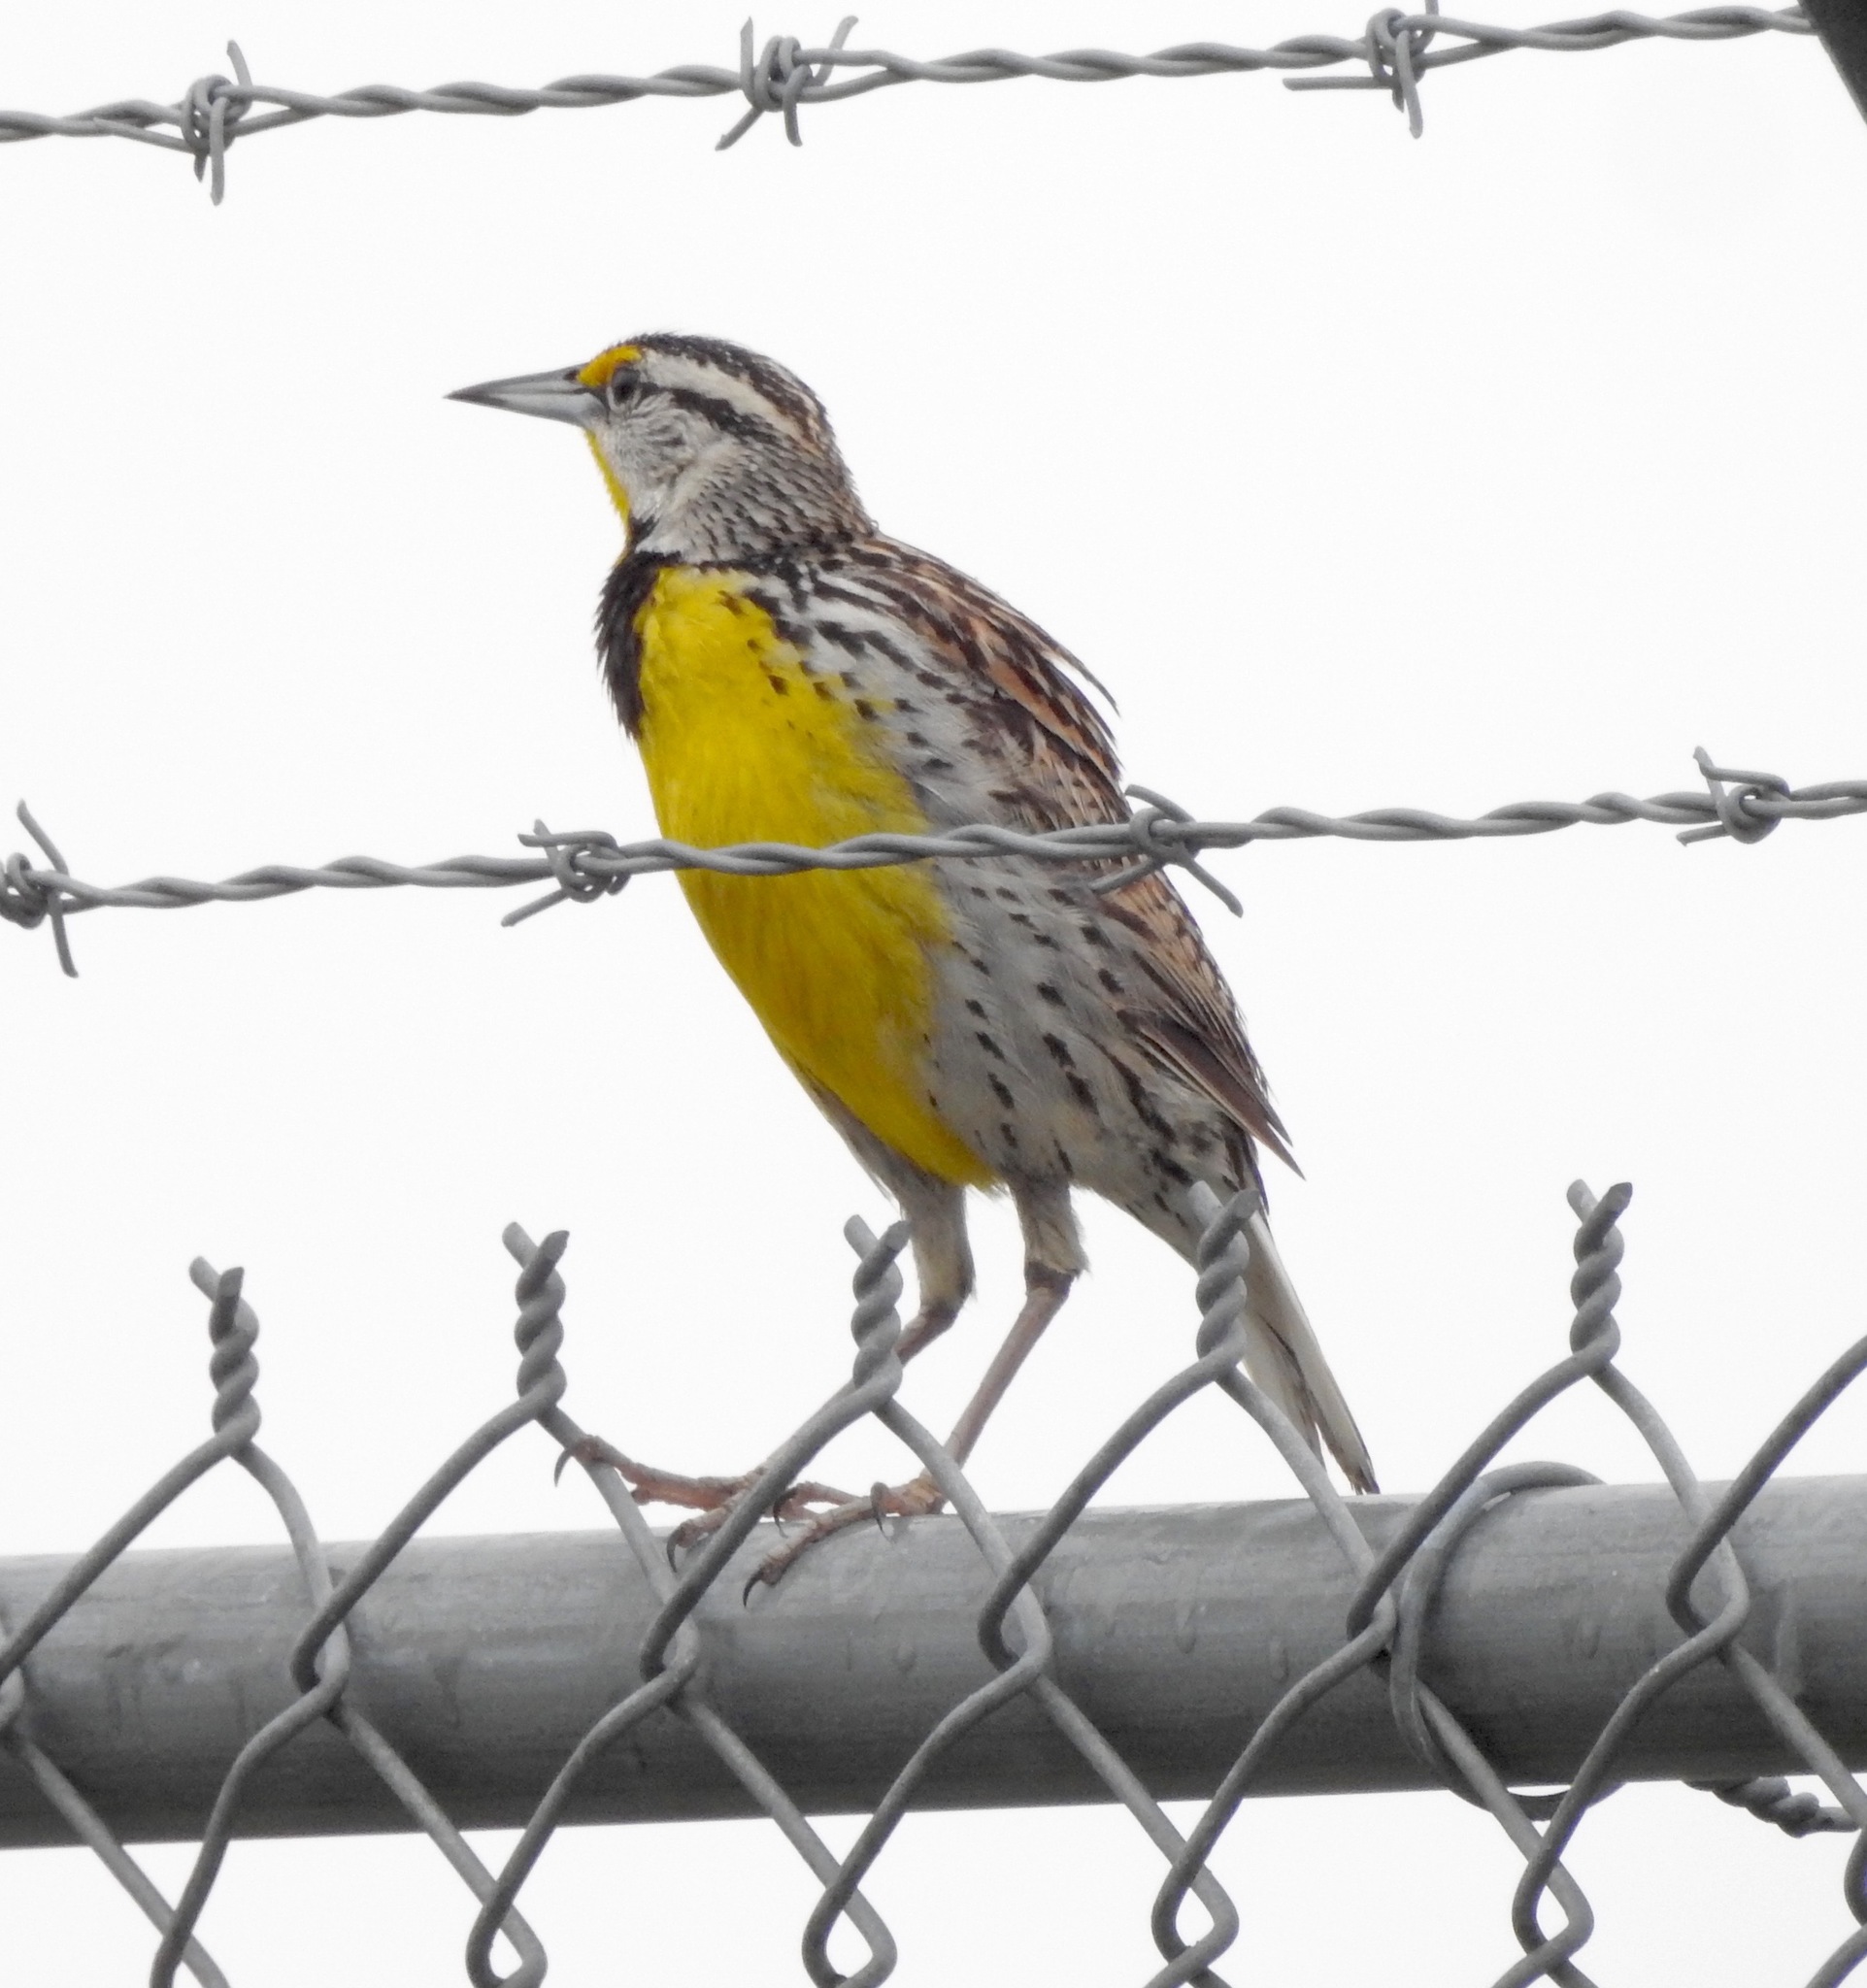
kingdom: Animalia
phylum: Chordata
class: Aves
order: Passeriformes
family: Icteridae
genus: Sturnella
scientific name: Sturnella magna
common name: Eastern meadowlark
